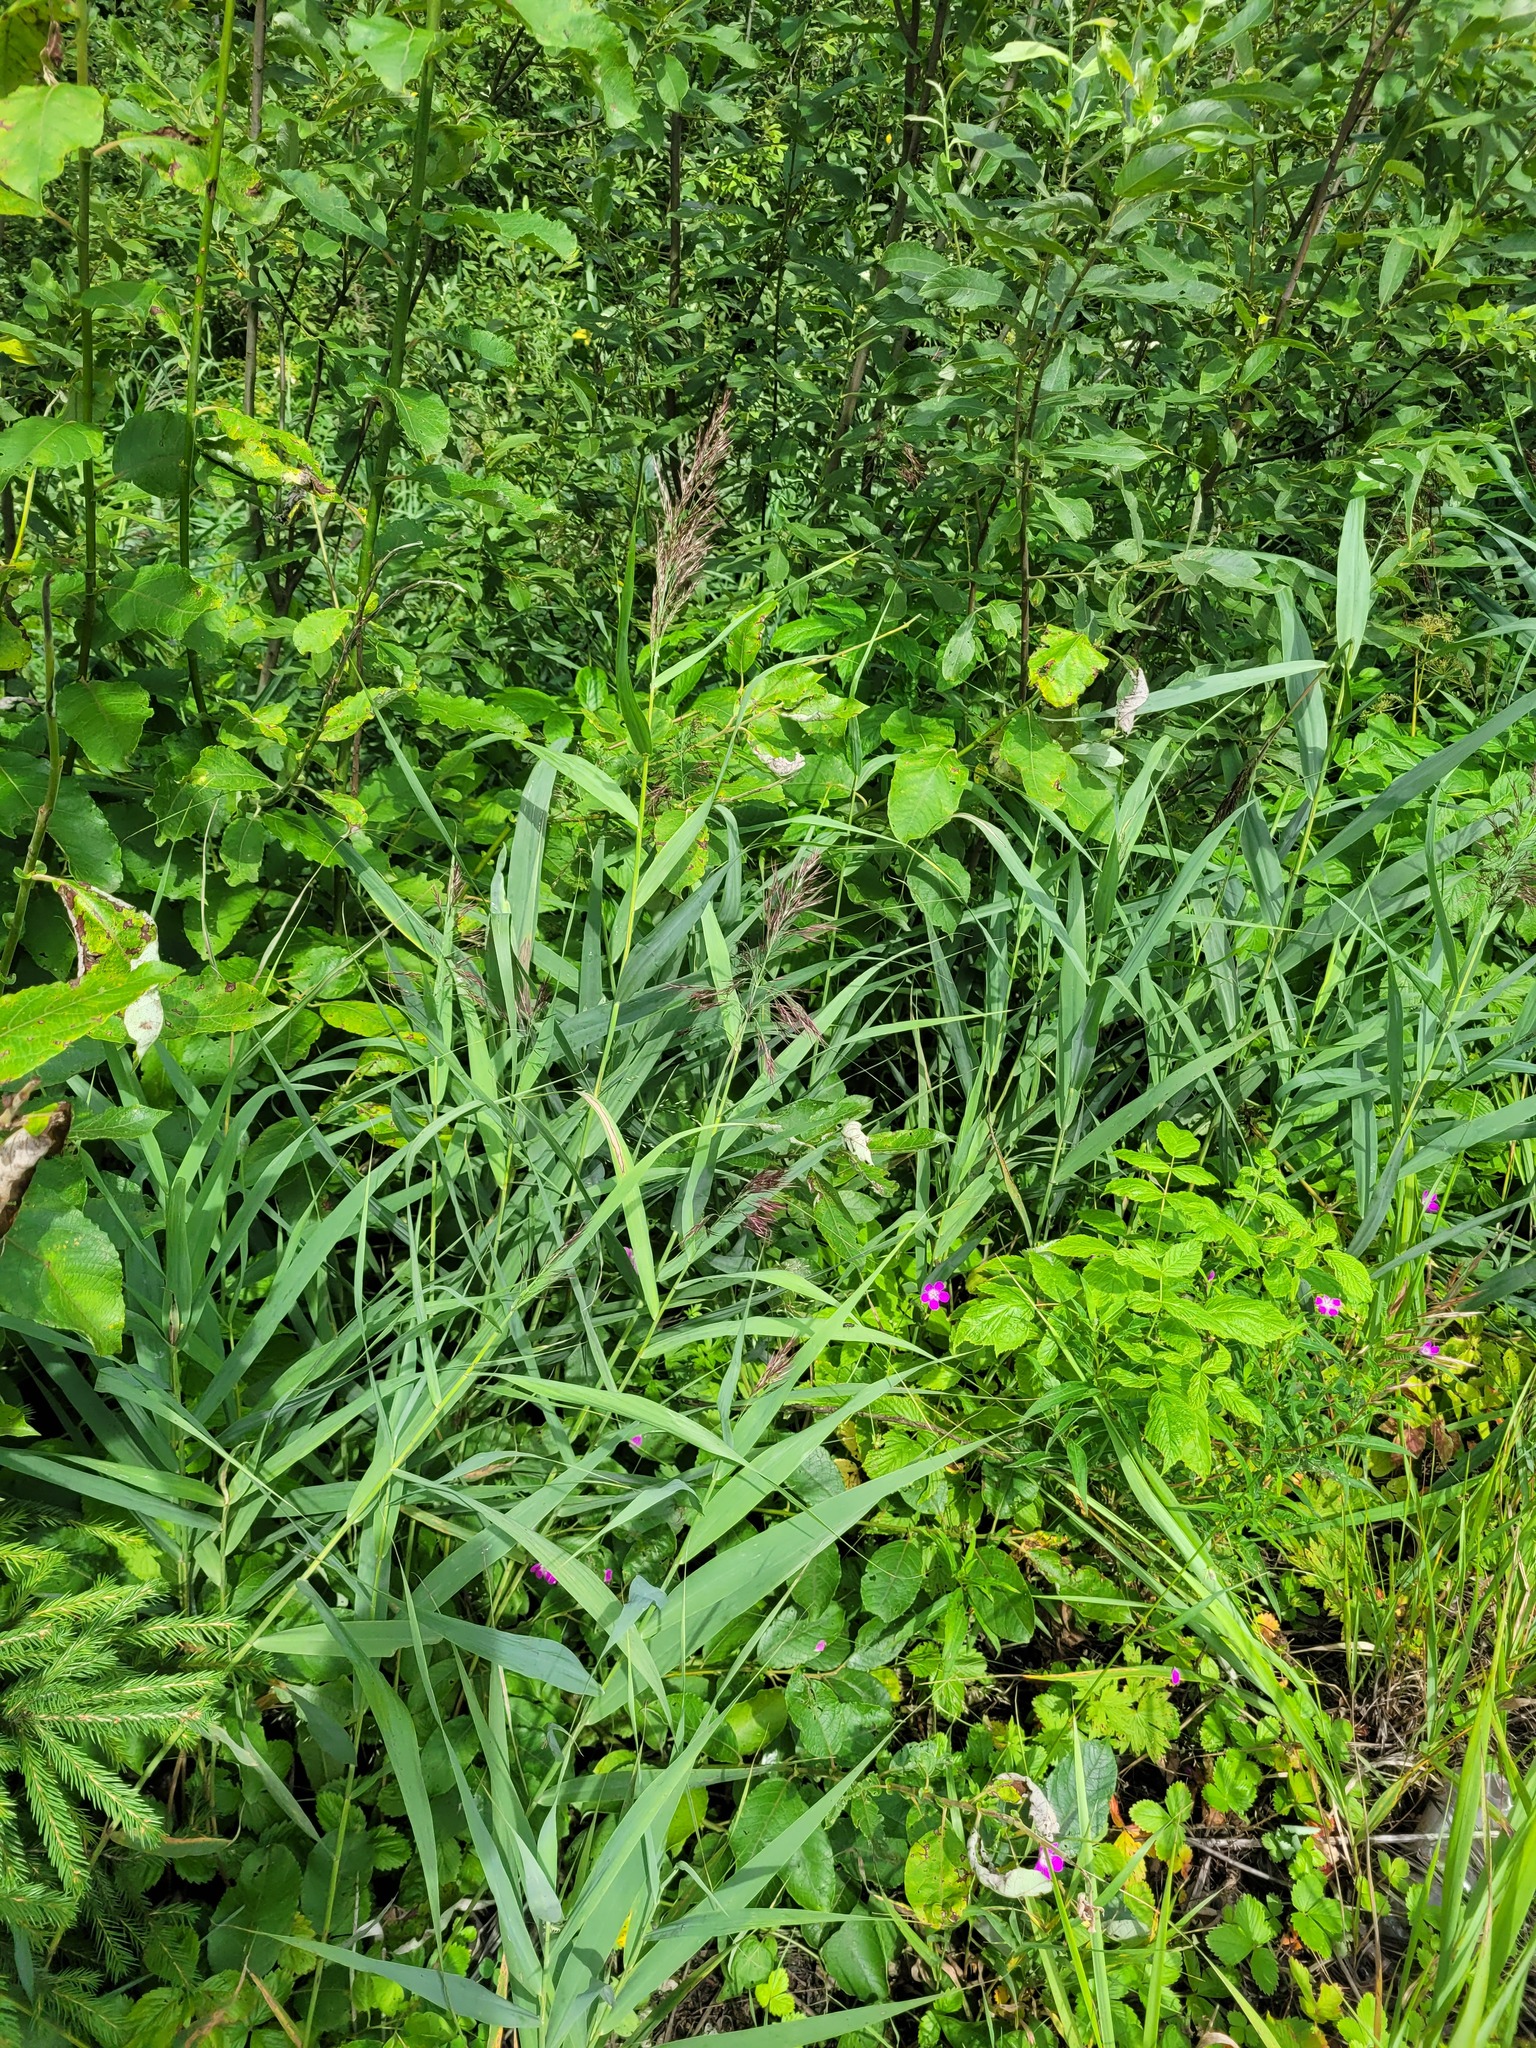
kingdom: Plantae
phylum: Tracheophyta
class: Liliopsida
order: Poales
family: Poaceae
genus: Phragmites
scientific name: Phragmites australis
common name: Common reed
